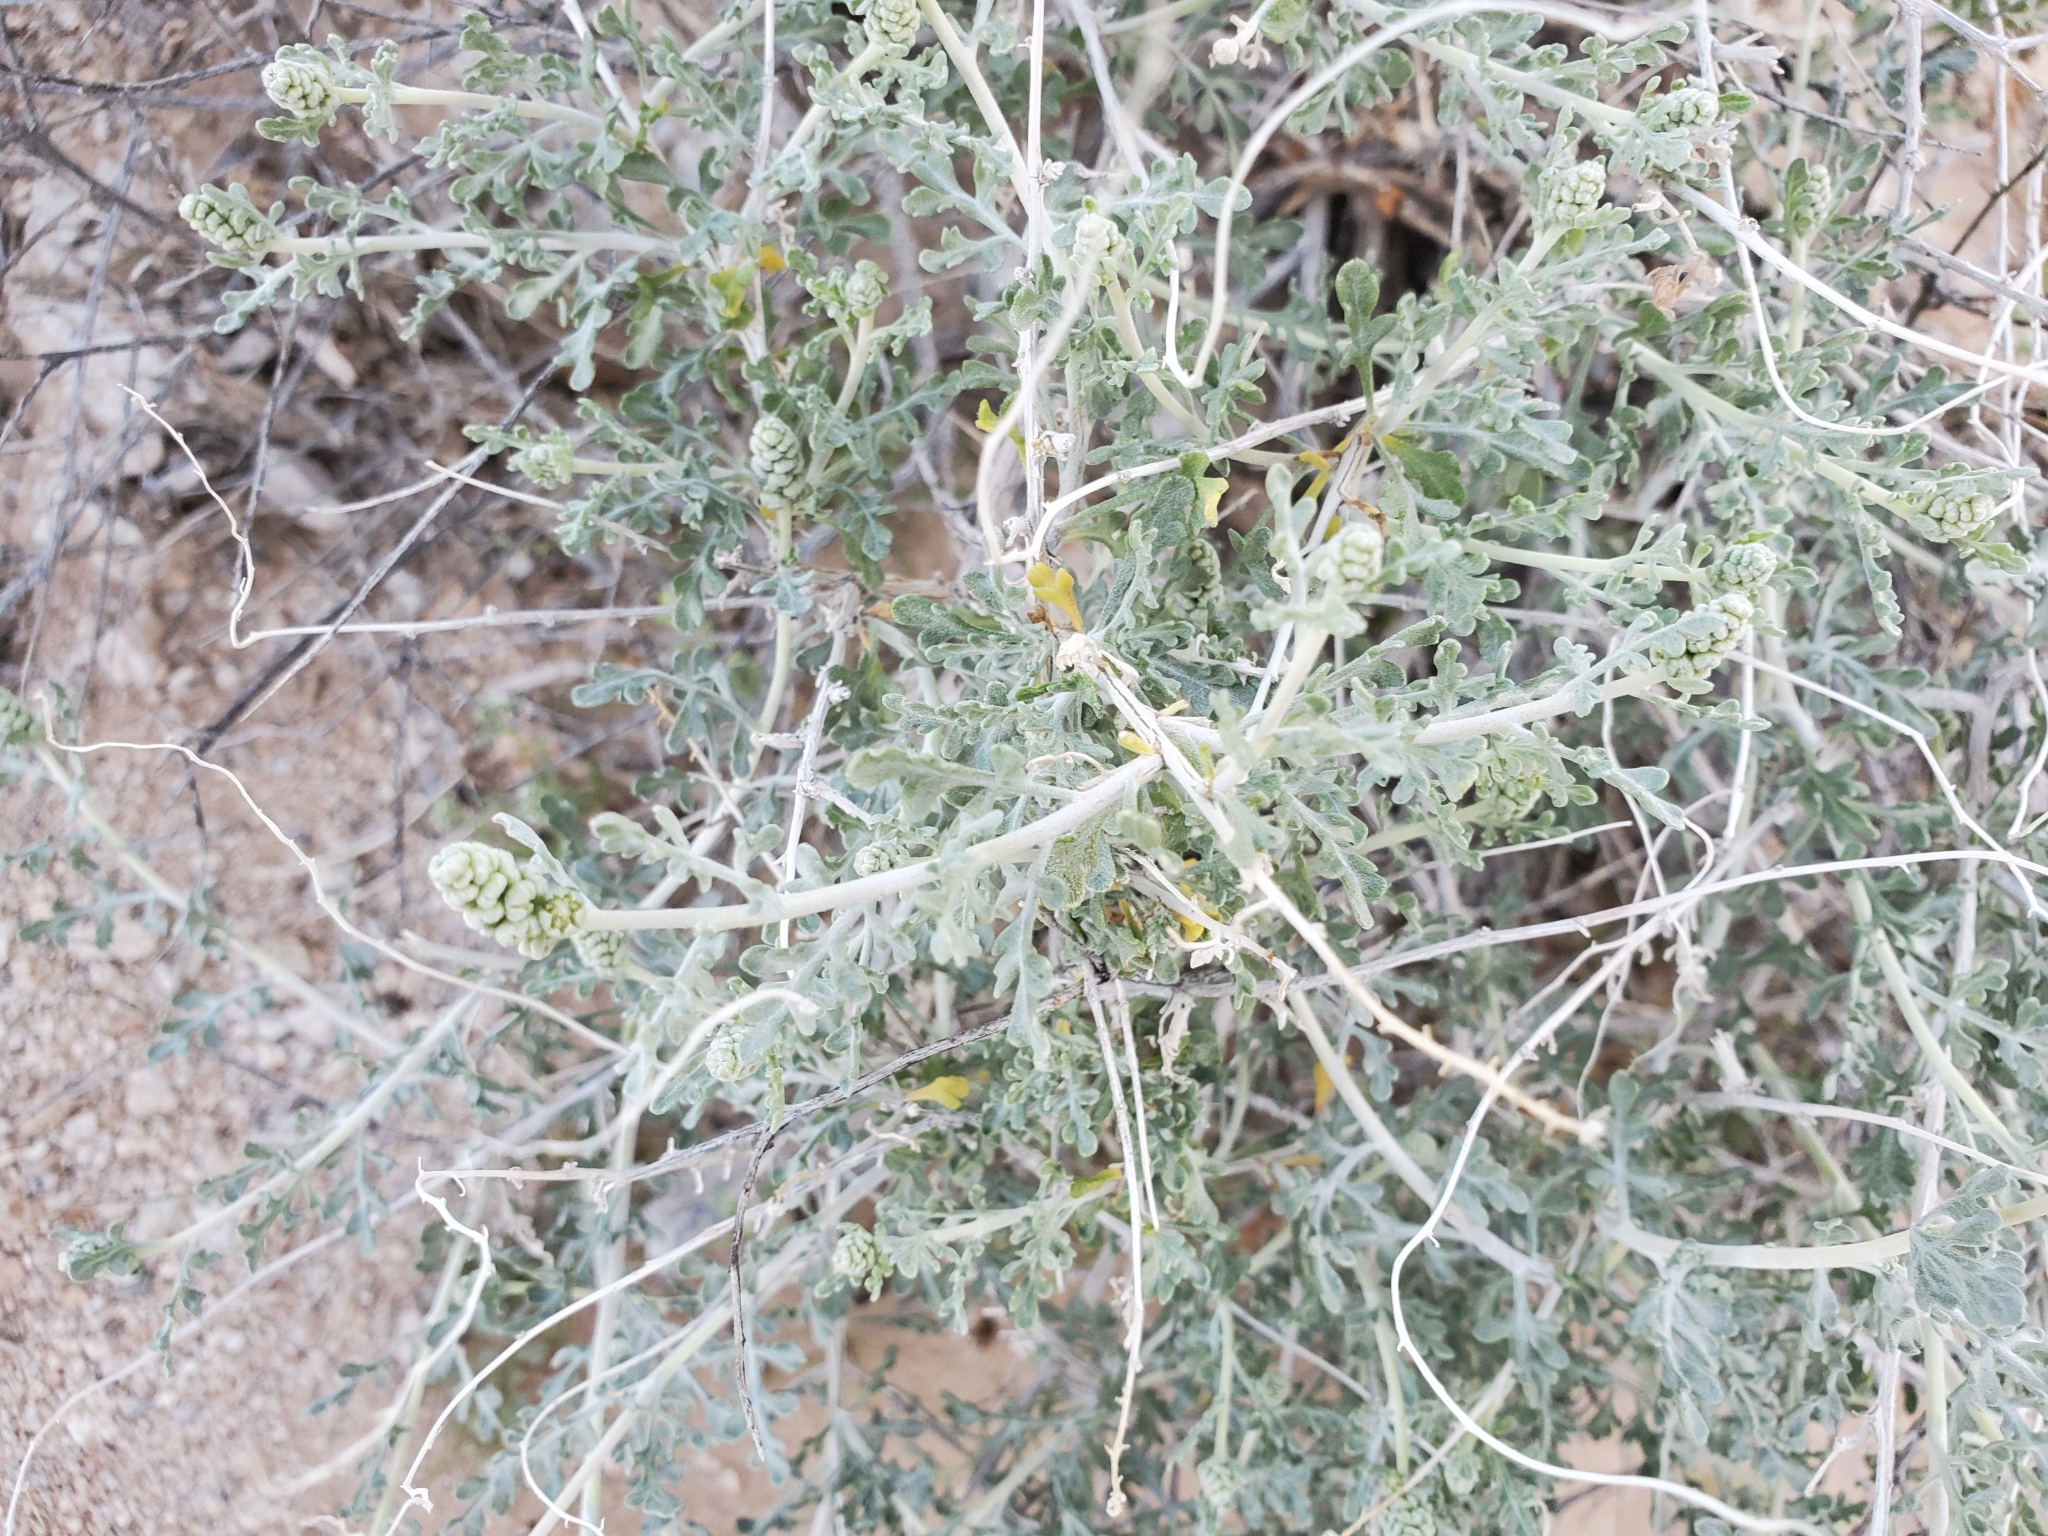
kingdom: Plantae
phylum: Tracheophyta
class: Magnoliopsida
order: Asterales
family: Asteraceae
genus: Ambrosia
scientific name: Ambrosia dumosa
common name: Bur-sage
